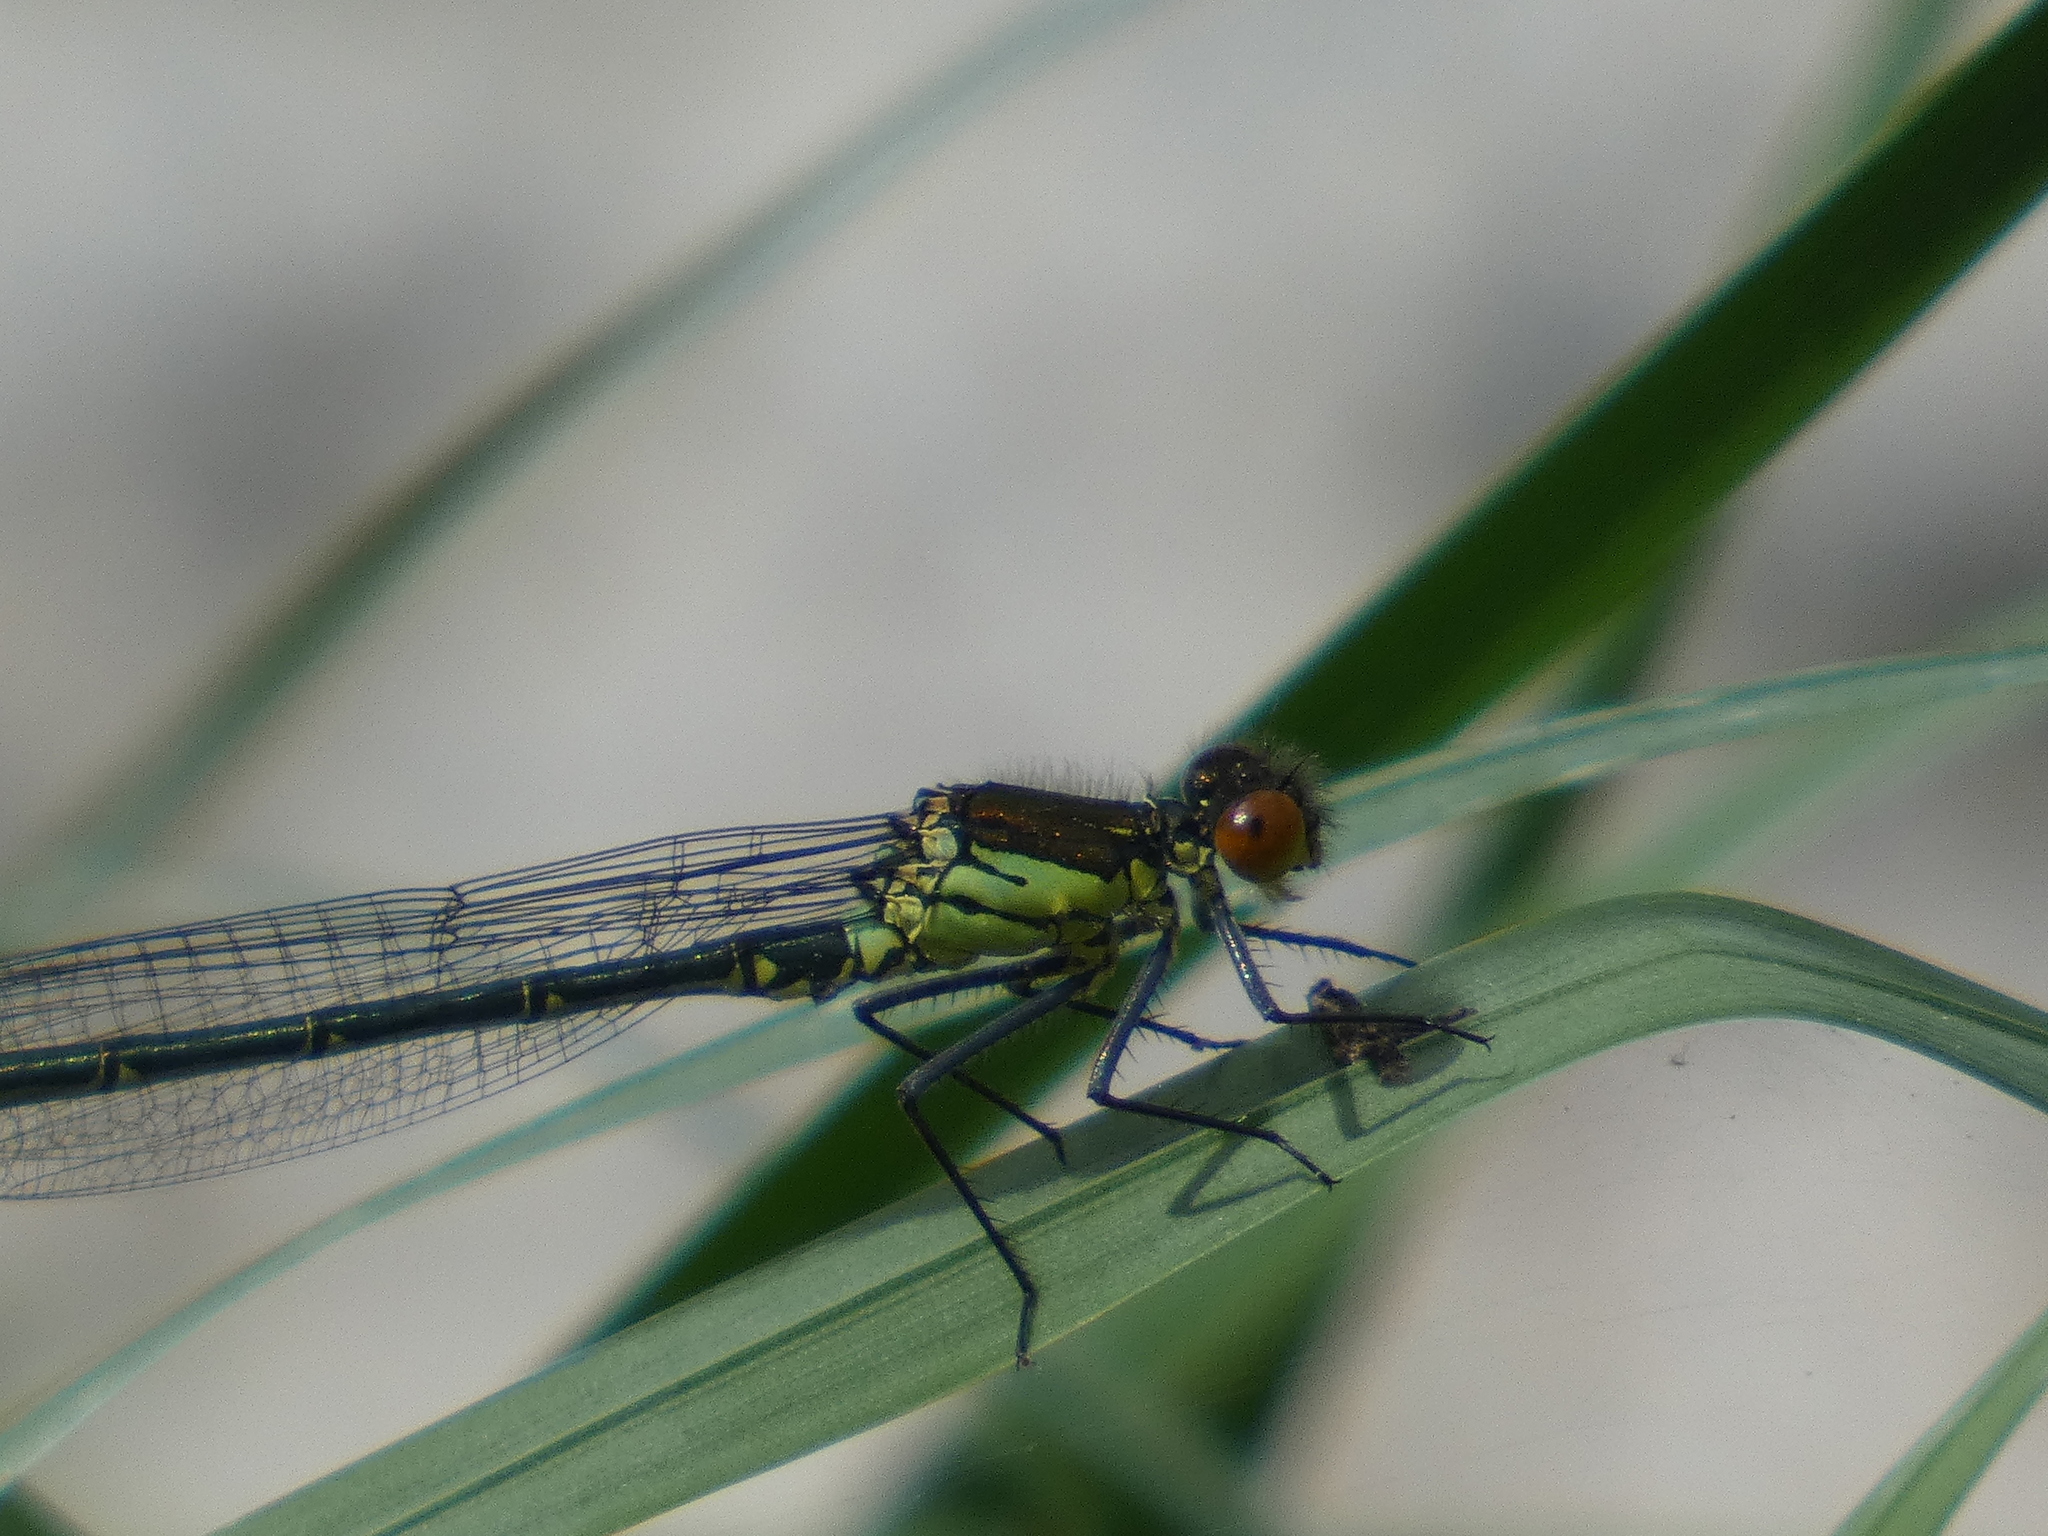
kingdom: Animalia
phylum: Arthropoda
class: Insecta
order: Odonata
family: Coenagrionidae
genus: Erythromma
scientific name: Erythromma najas
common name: Red-eyed damselfly
